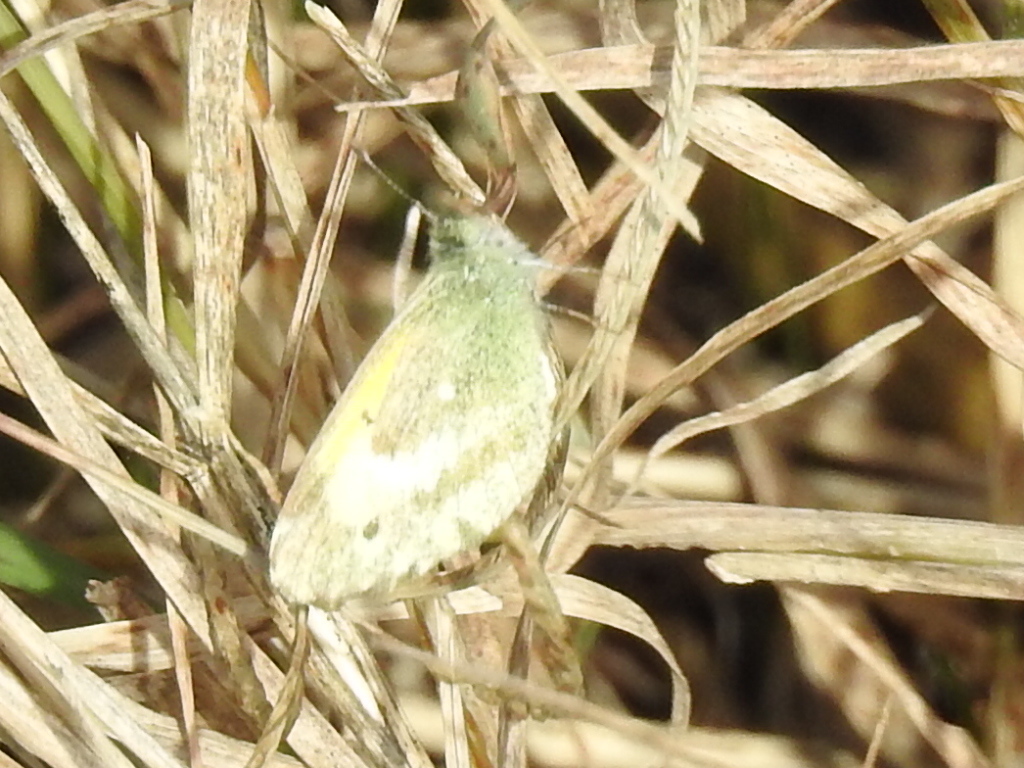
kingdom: Animalia
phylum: Arthropoda
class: Insecta
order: Lepidoptera
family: Pieridae
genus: Nathalis
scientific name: Nathalis iole
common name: Dainty sulphur
